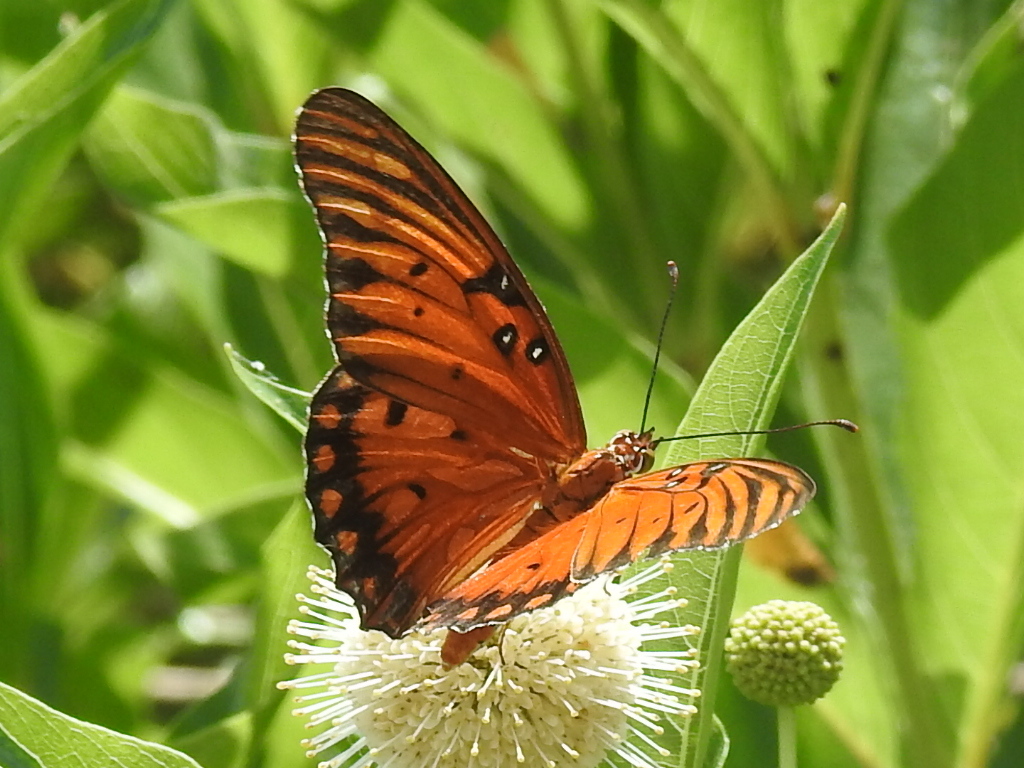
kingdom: Animalia
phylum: Arthropoda
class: Insecta
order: Lepidoptera
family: Nymphalidae
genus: Dione
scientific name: Dione vanillae
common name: Gulf fritillary
